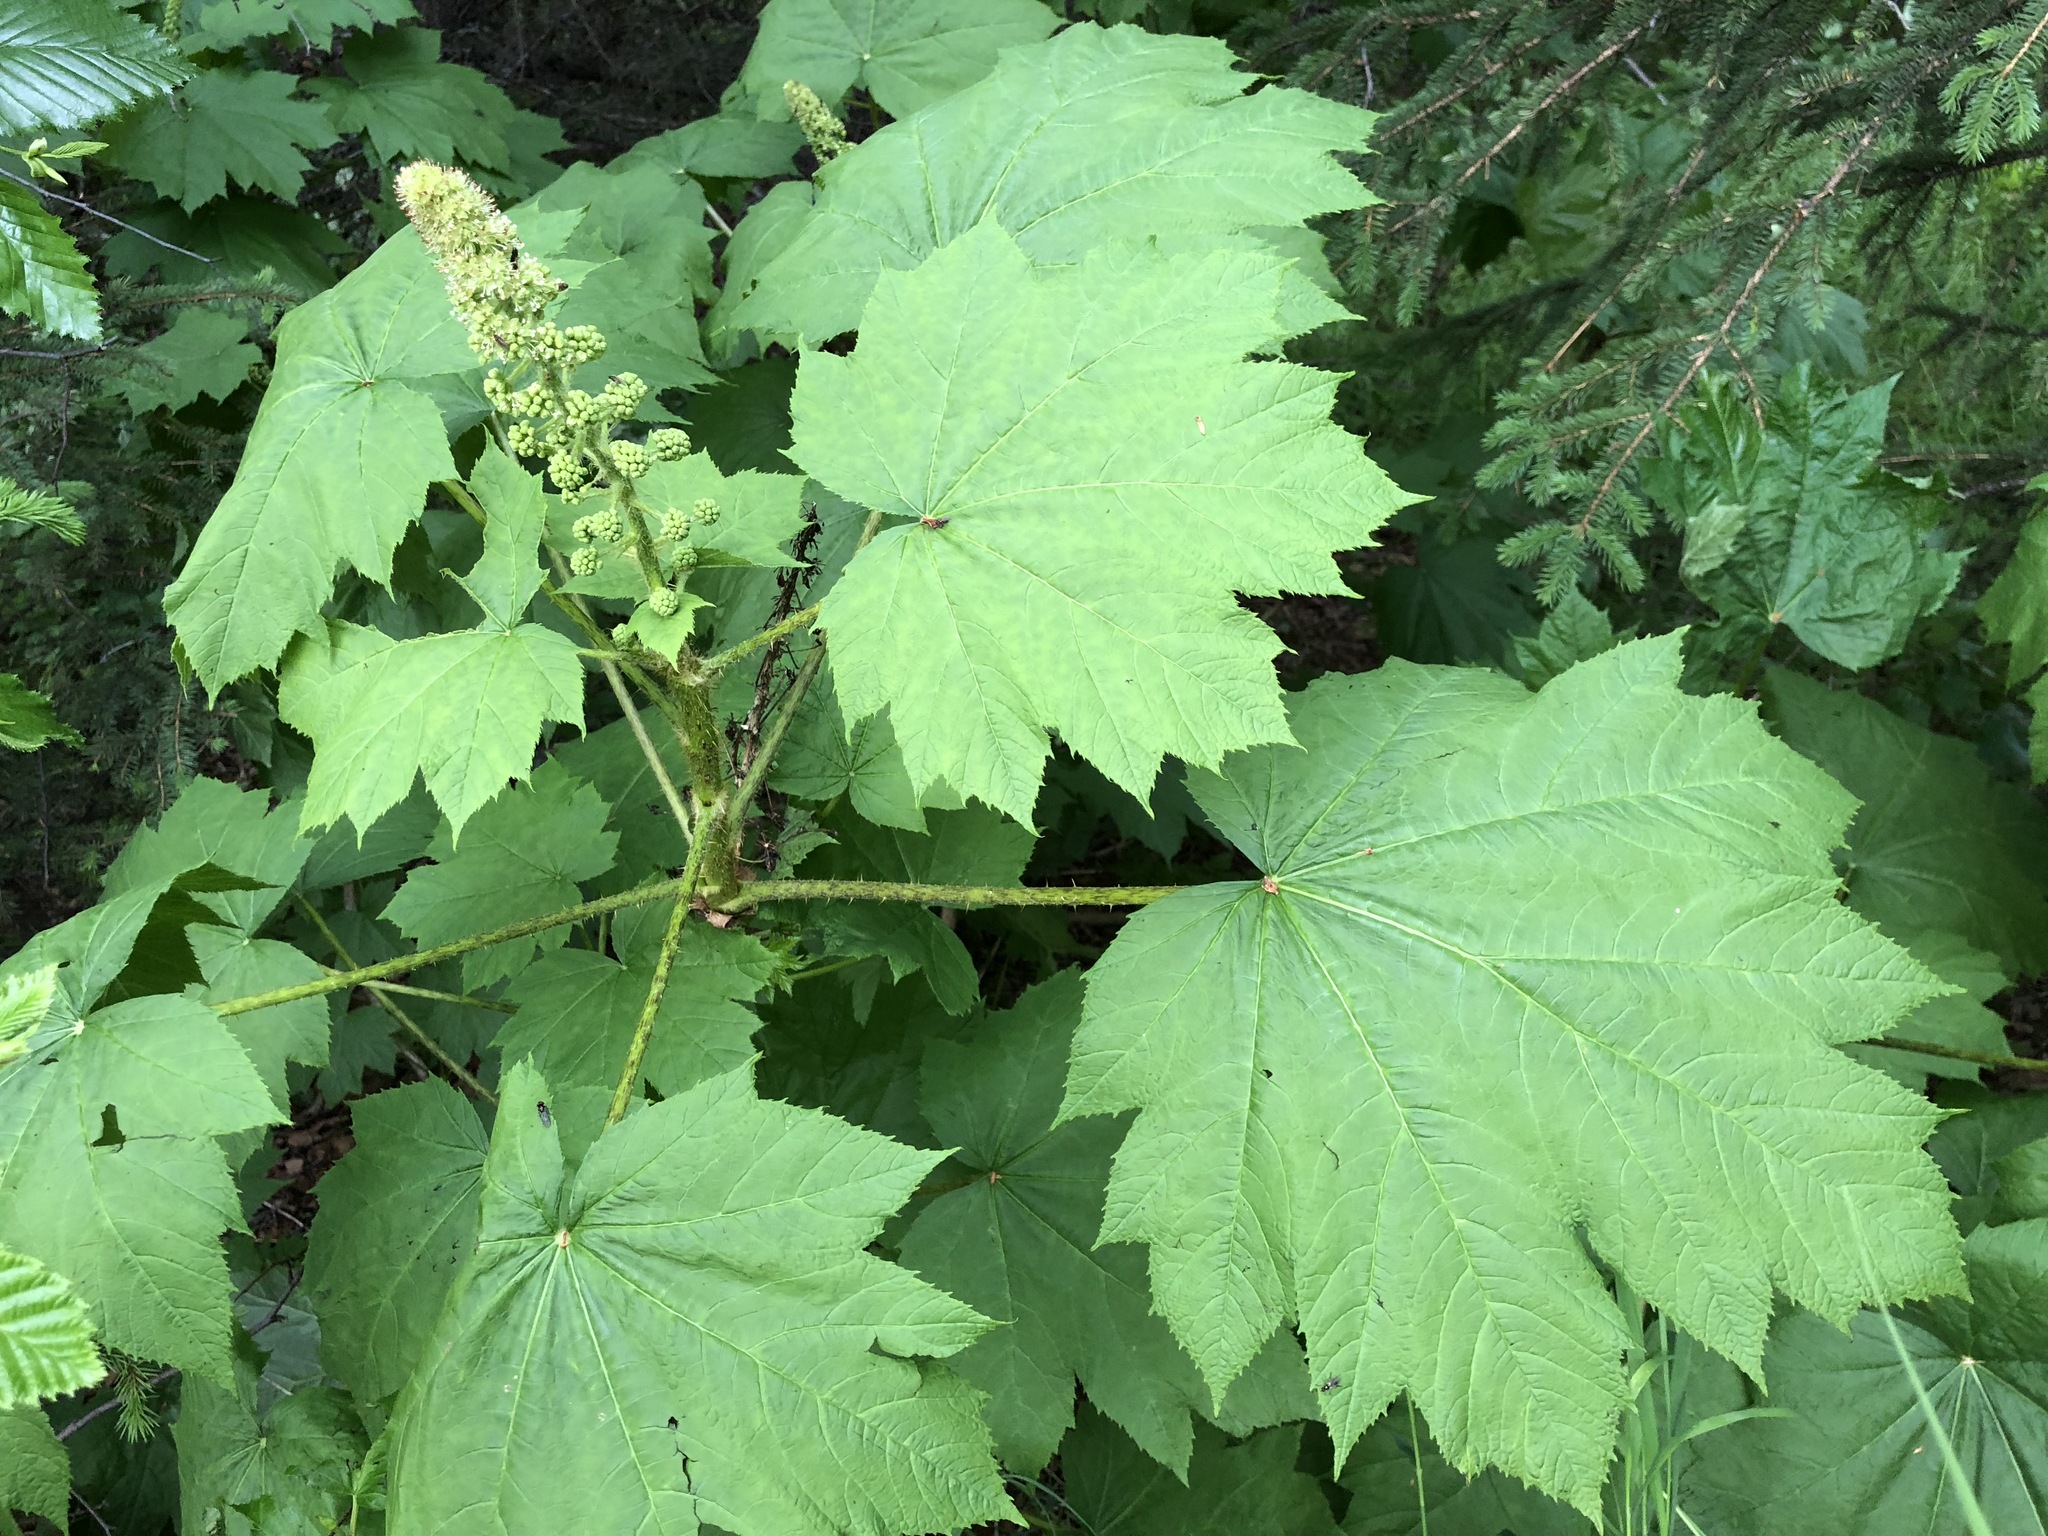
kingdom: Plantae
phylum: Tracheophyta
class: Magnoliopsida
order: Apiales
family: Araliaceae
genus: Oplopanax
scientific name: Oplopanax horridus
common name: Devil's walking-stick
